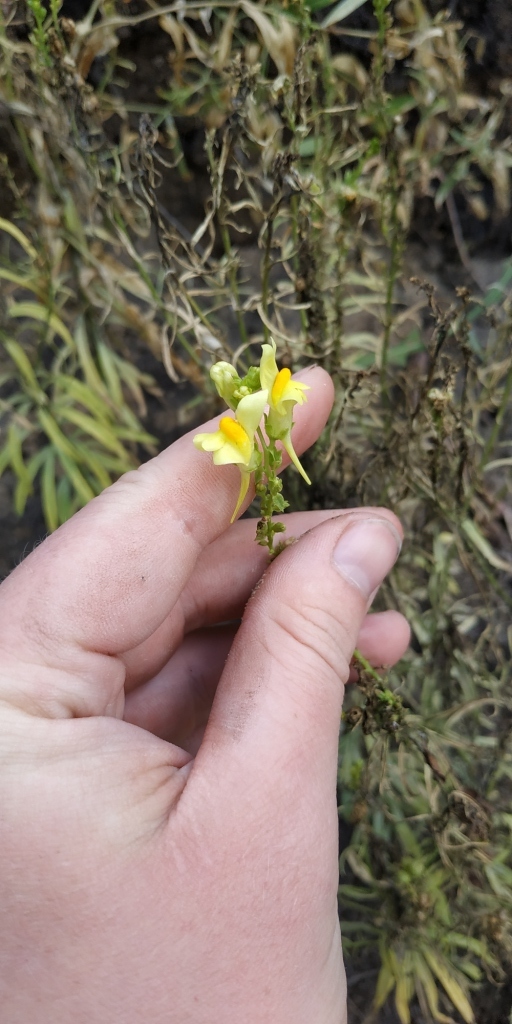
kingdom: Plantae
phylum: Tracheophyta
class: Magnoliopsida
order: Lamiales
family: Plantaginaceae
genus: Linaria
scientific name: Linaria vulgaris
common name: Butter and eggs
